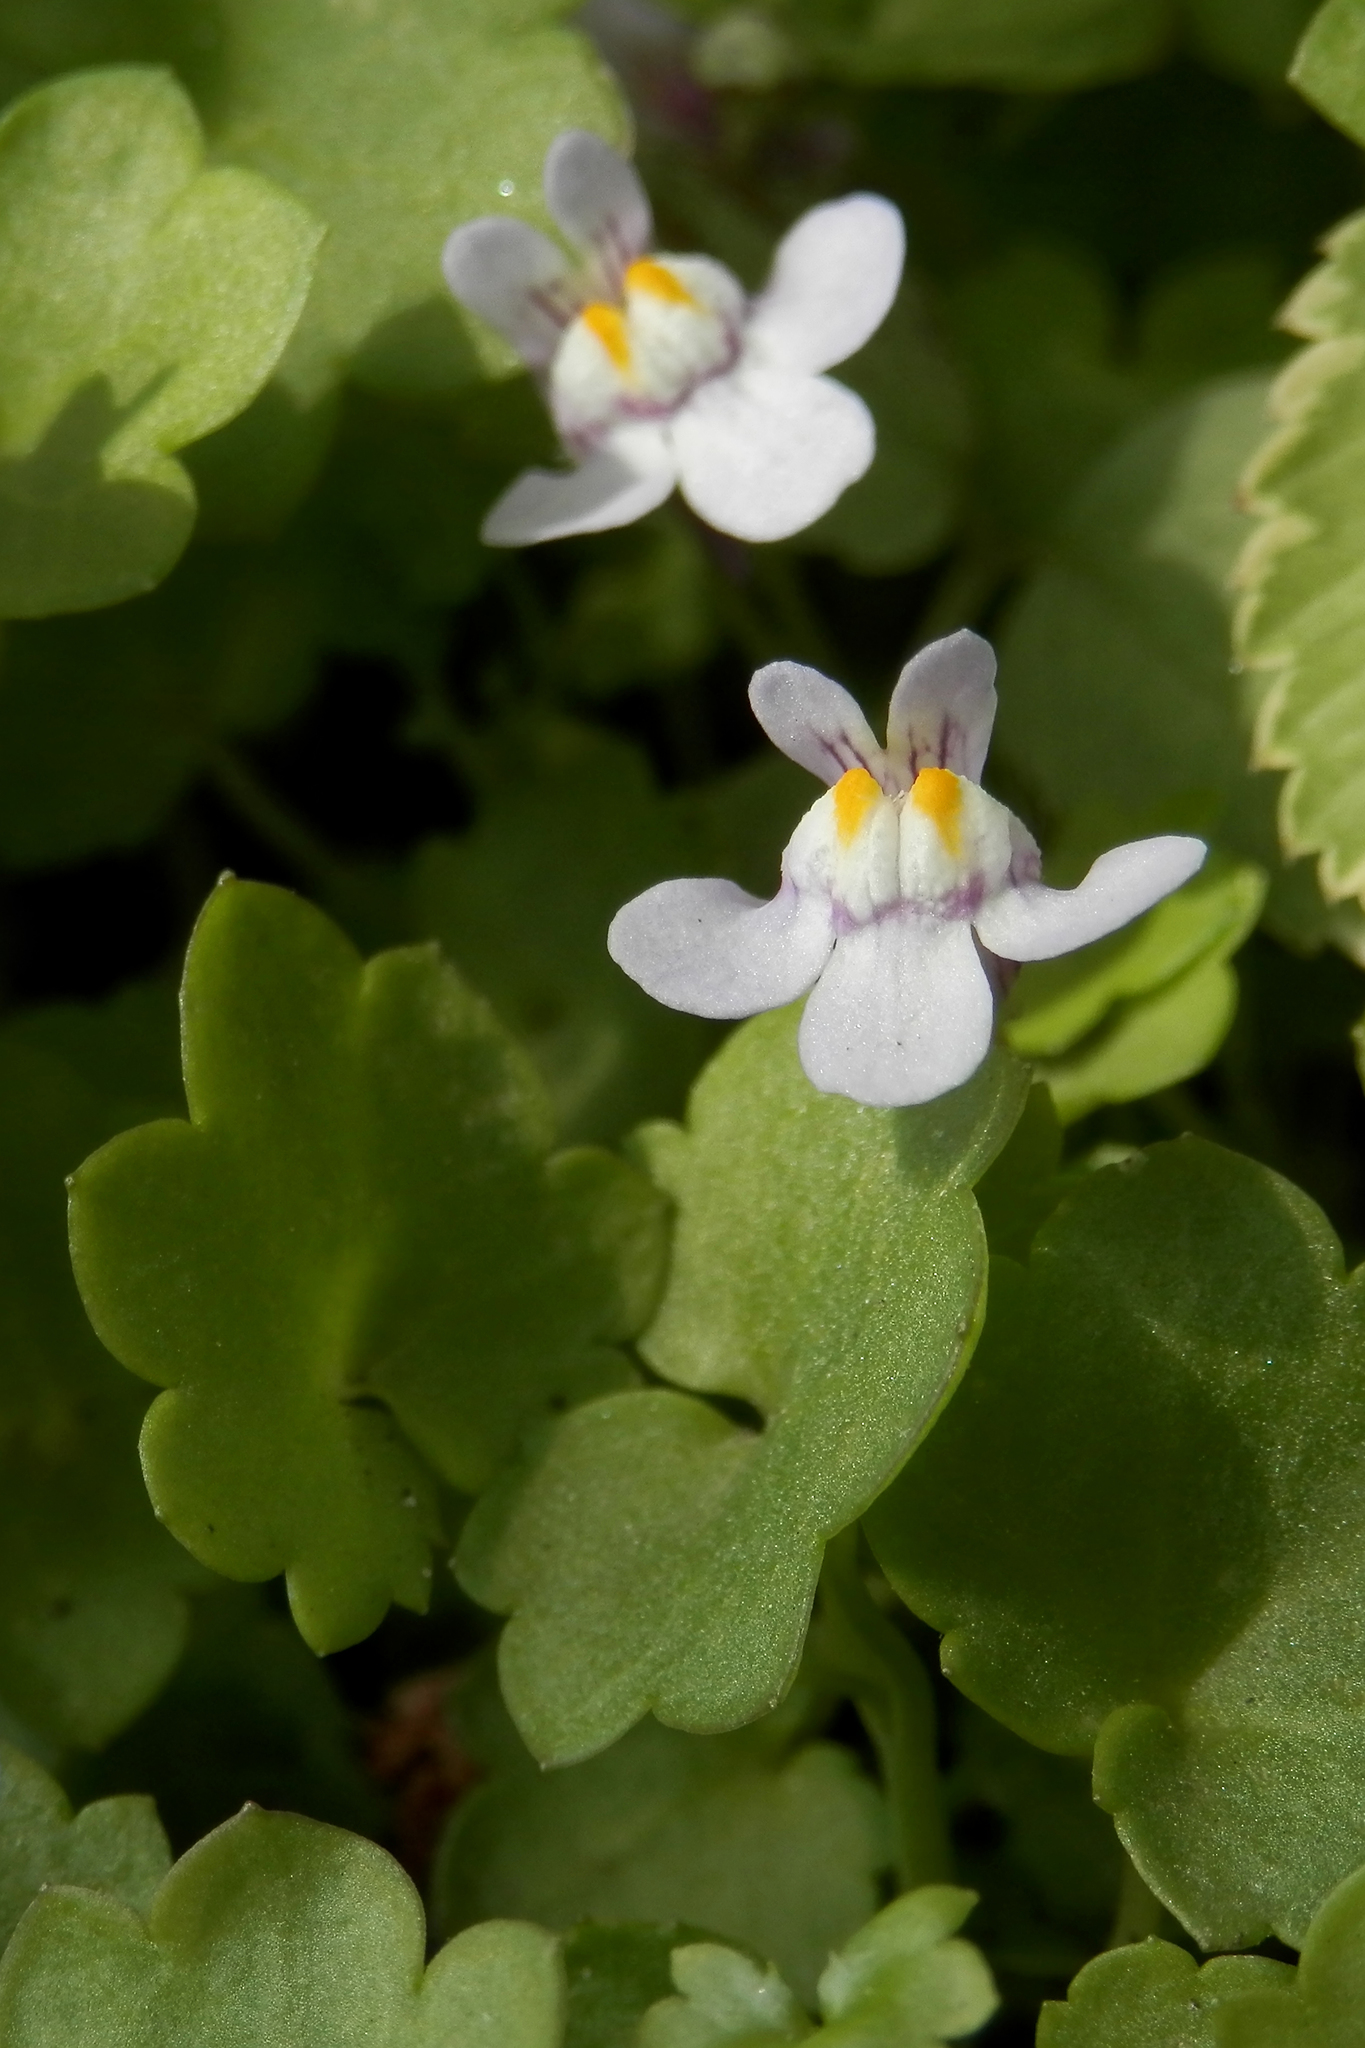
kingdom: Plantae
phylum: Tracheophyta
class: Magnoliopsida
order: Lamiales
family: Plantaginaceae
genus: Cymbalaria
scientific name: Cymbalaria muralis
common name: Ivy-leaved toadflax
